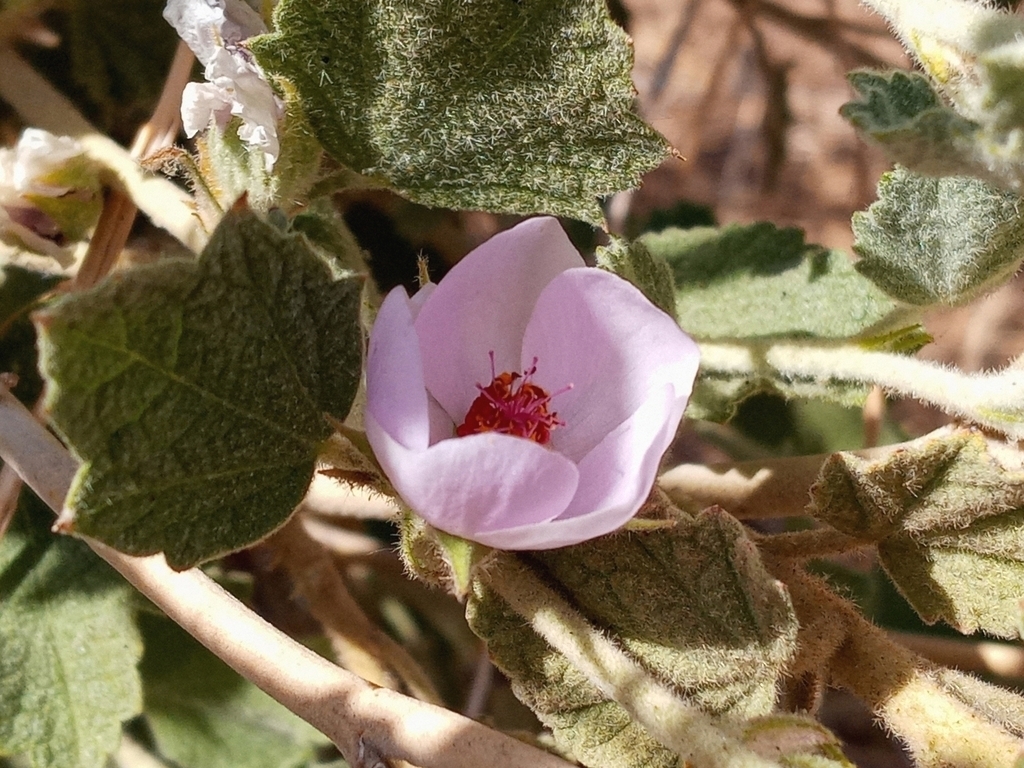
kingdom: Plantae
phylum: Tracheophyta
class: Magnoliopsida
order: Malvales
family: Malvaceae
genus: Malacothamnus
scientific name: Malacothamnus marrubioides
